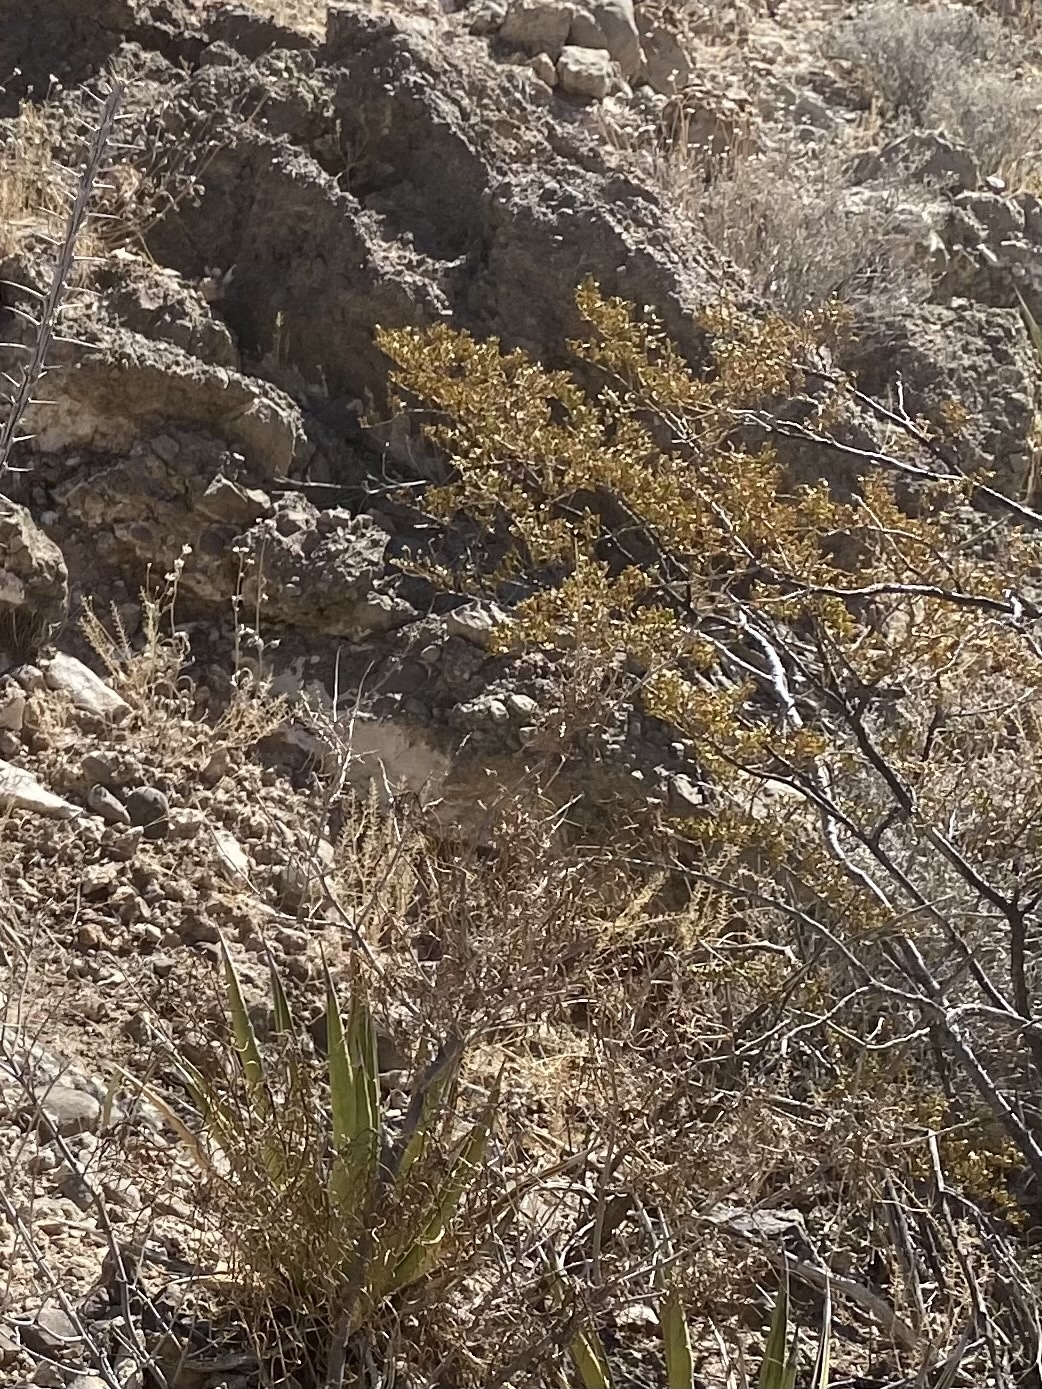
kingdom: Plantae
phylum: Tracheophyta
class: Magnoliopsida
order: Zygophyllales
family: Zygophyllaceae
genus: Larrea
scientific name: Larrea tridentata
